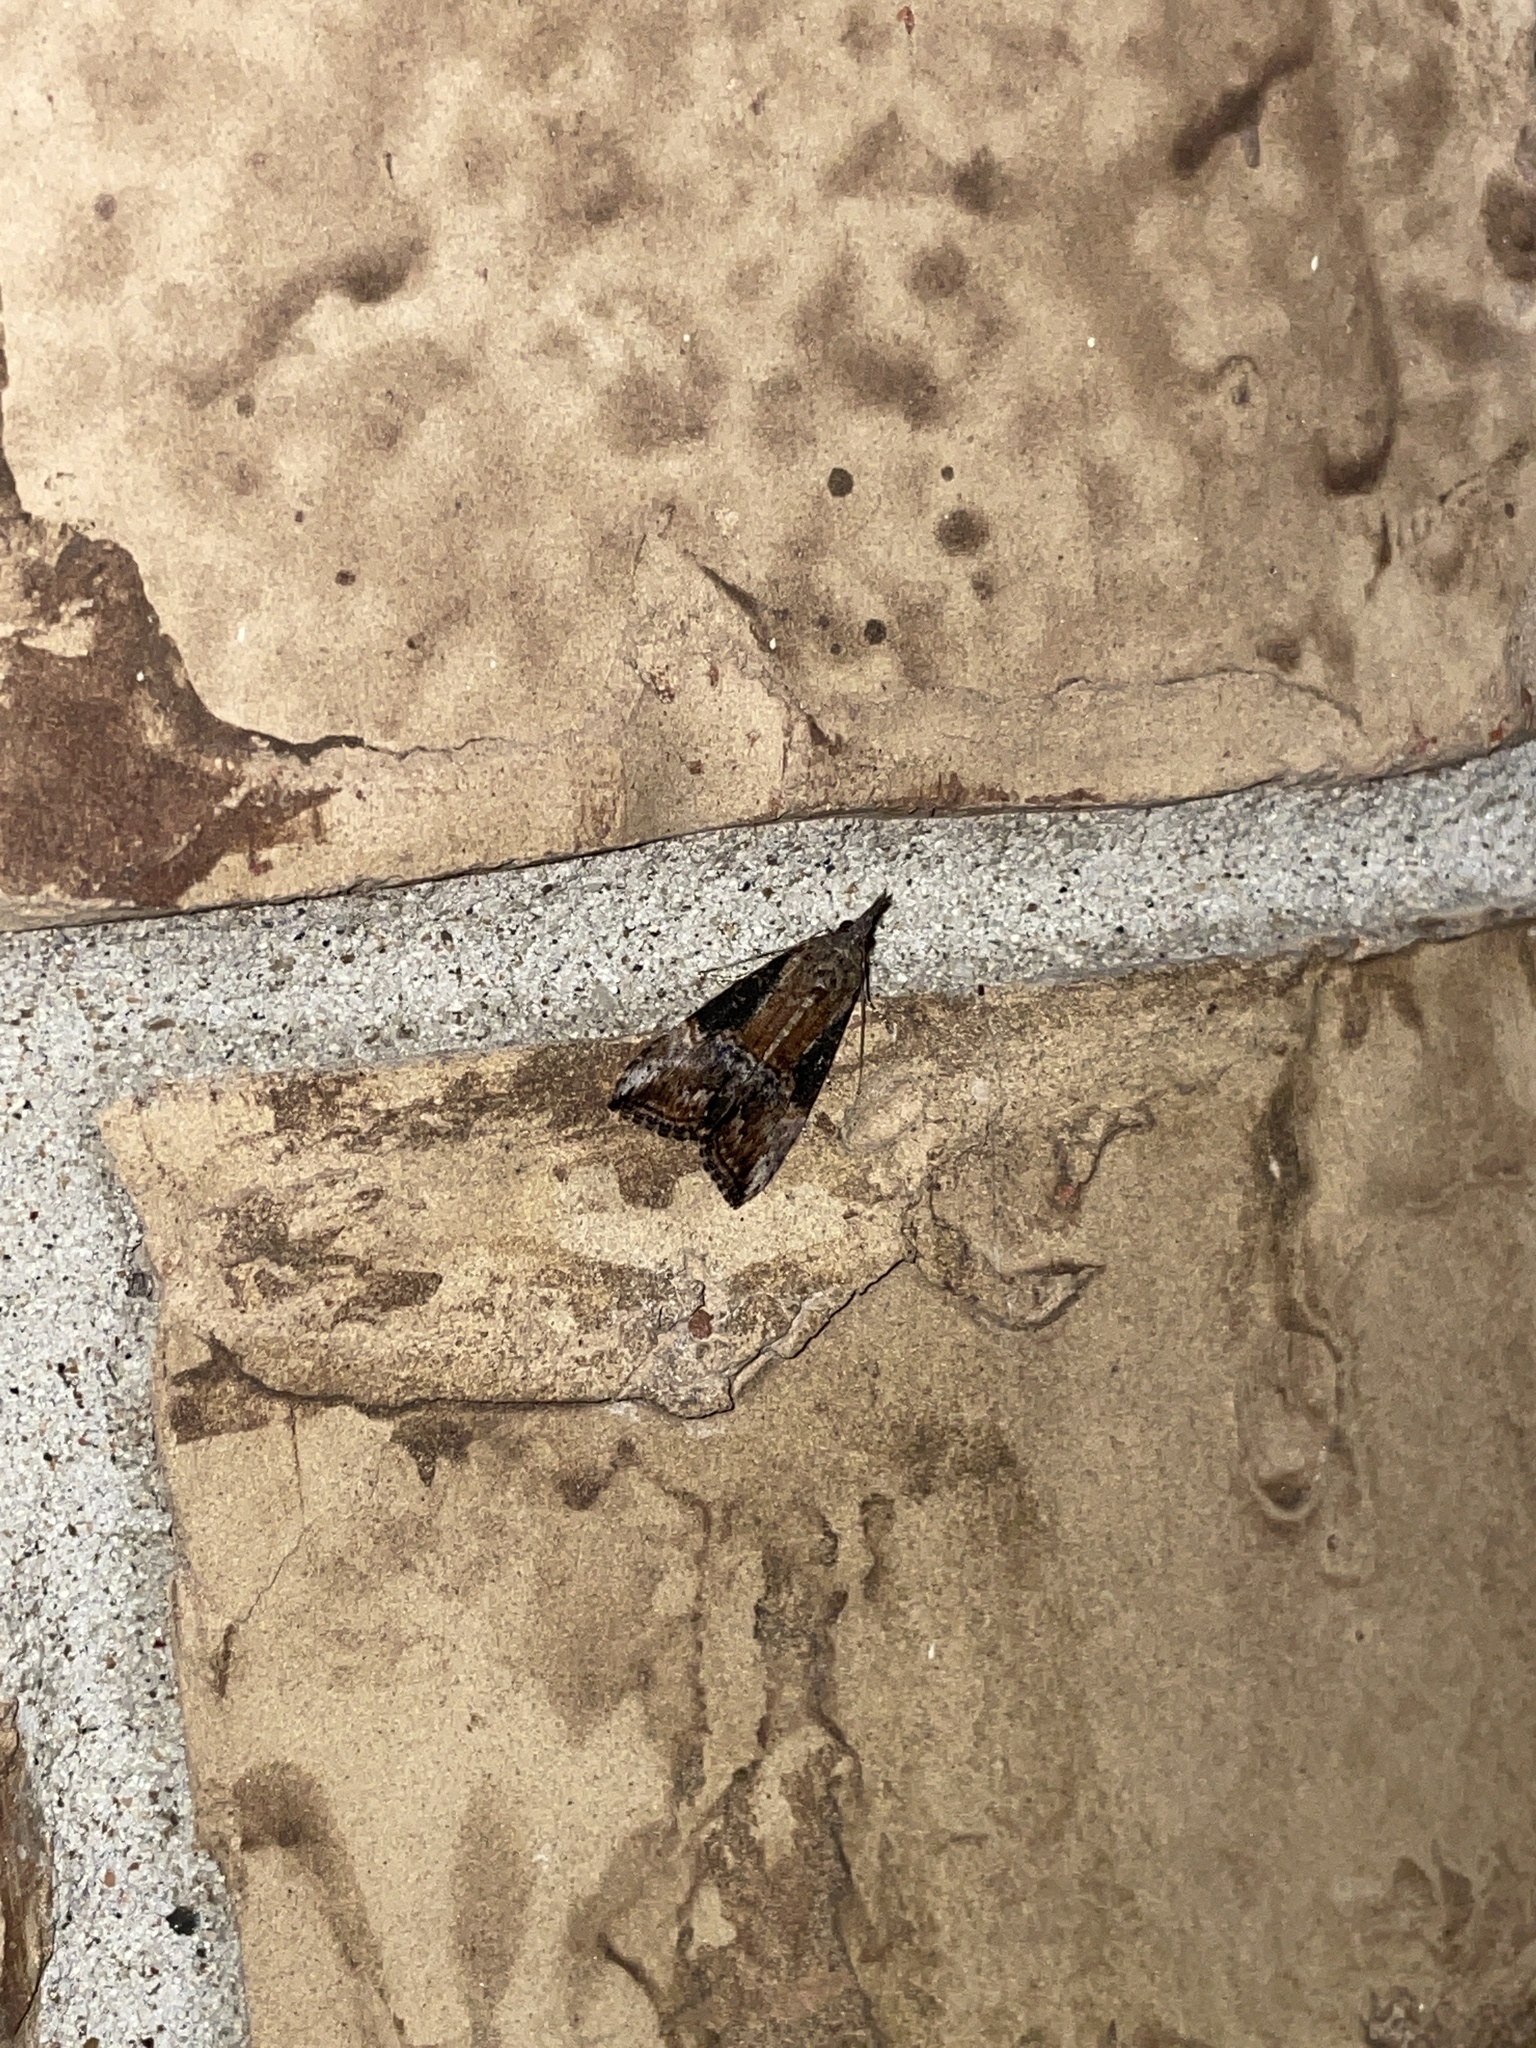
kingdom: Animalia
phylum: Arthropoda
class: Insecta
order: Lepidoptera
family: Erebidae
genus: Hypena
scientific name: Hypena scabra
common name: Green cloverworm
